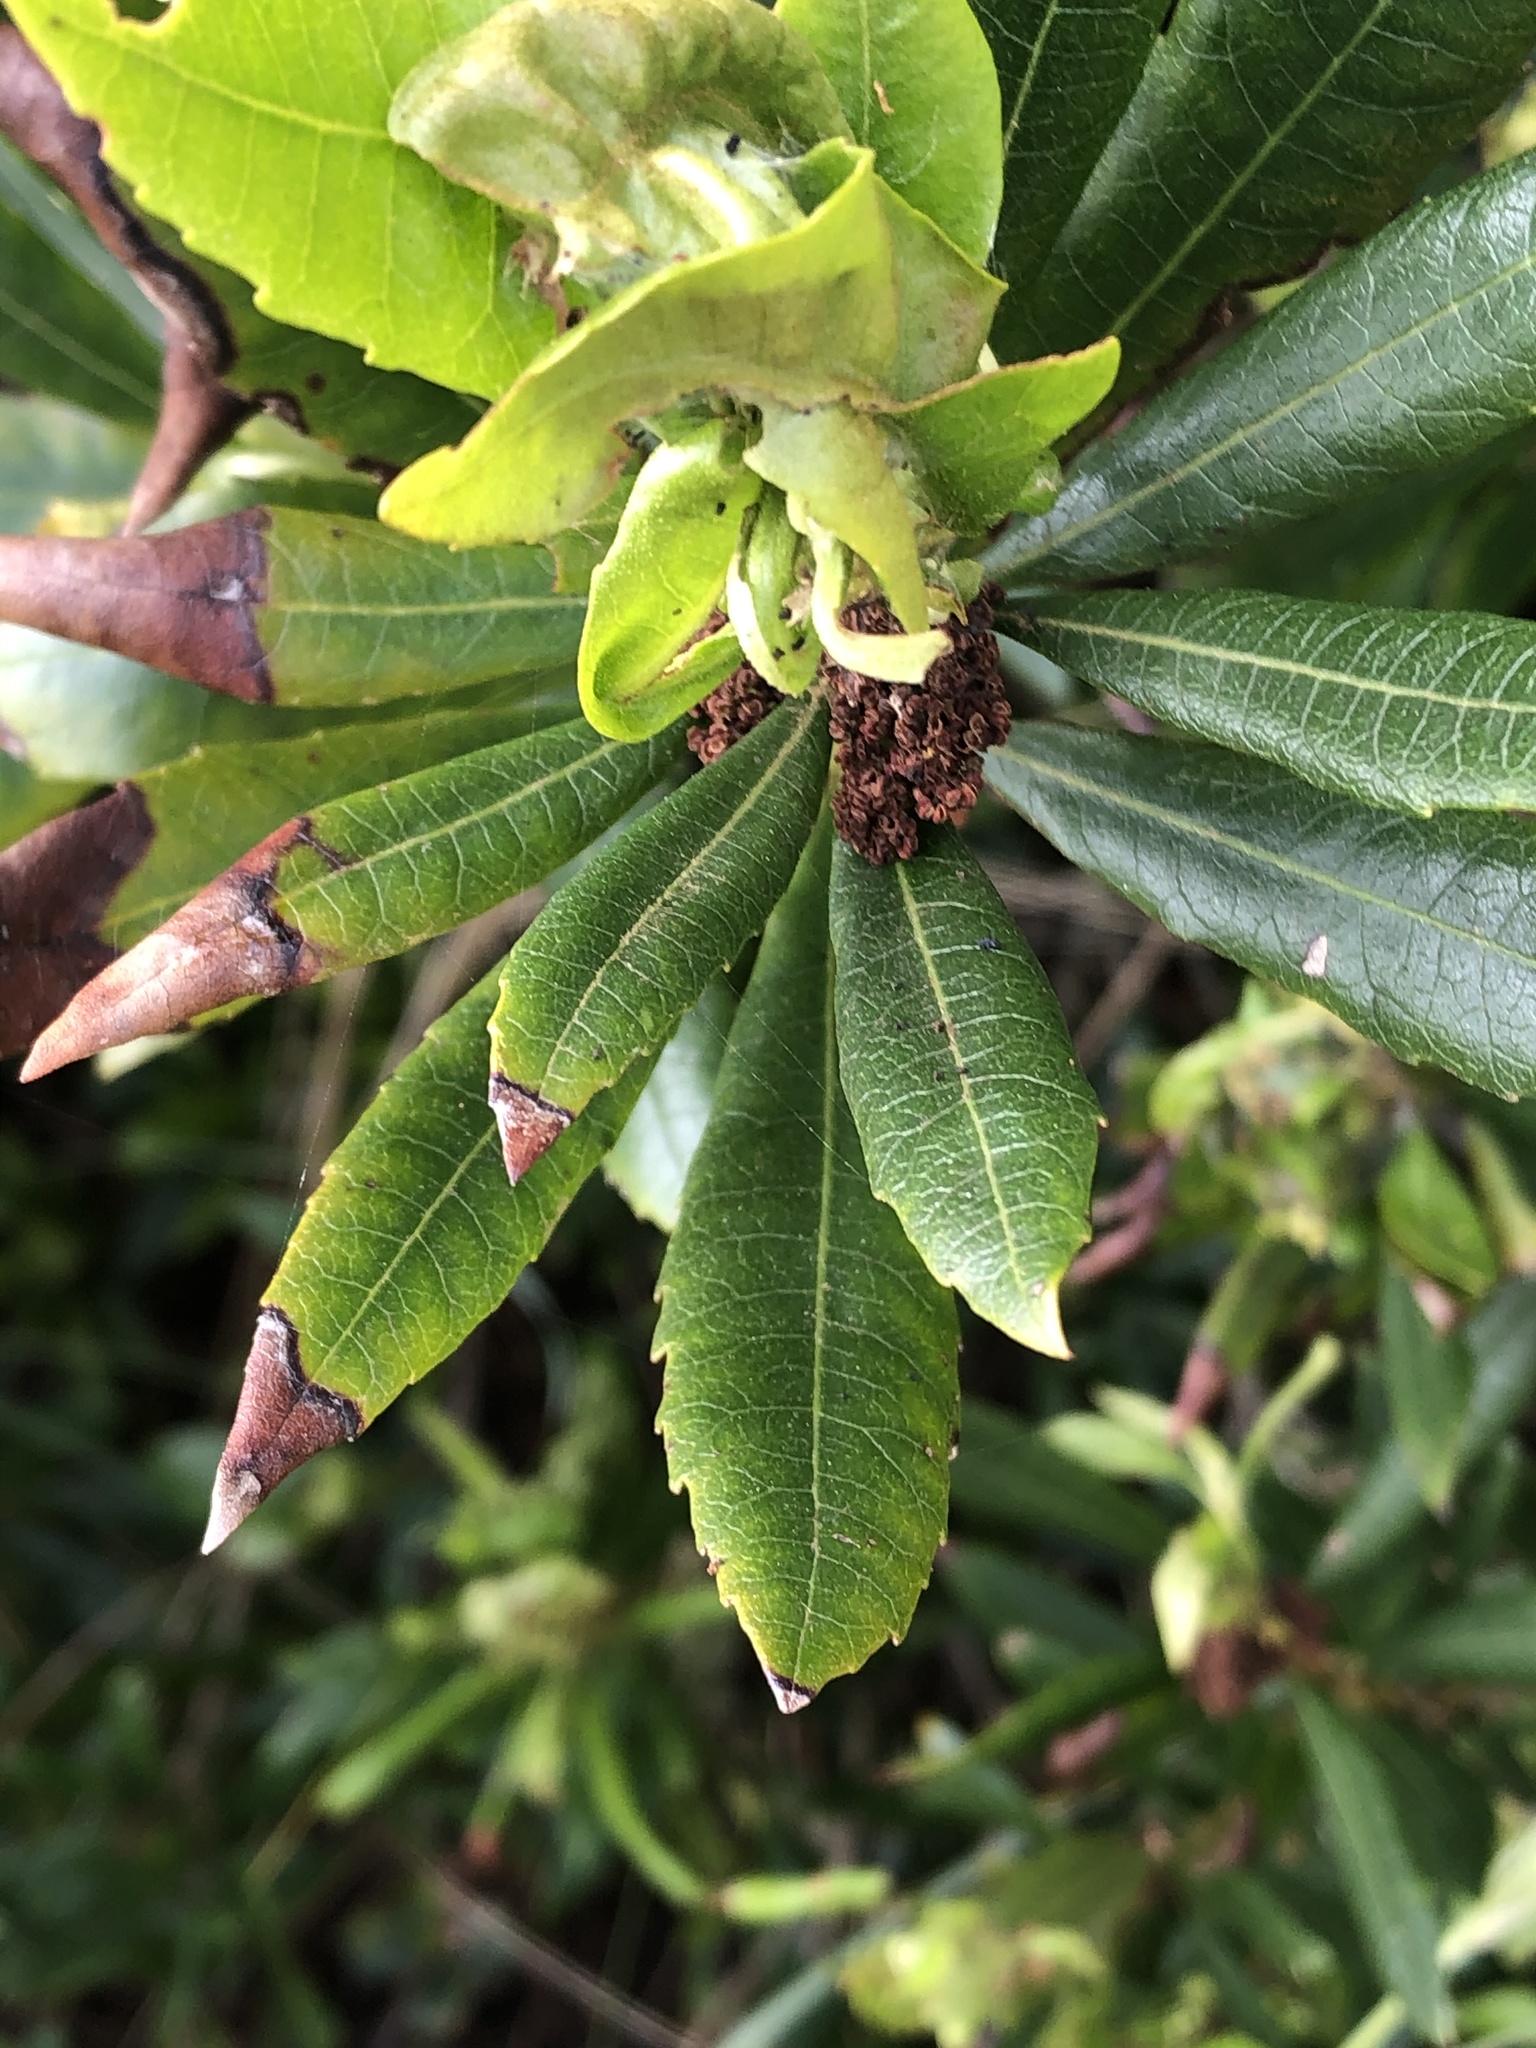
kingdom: Plantae
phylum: Tracheophyta
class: Magnoliopsida
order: Fagales
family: Myricaceae
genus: Morella
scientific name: Morella californica
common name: California wax-myrtle
